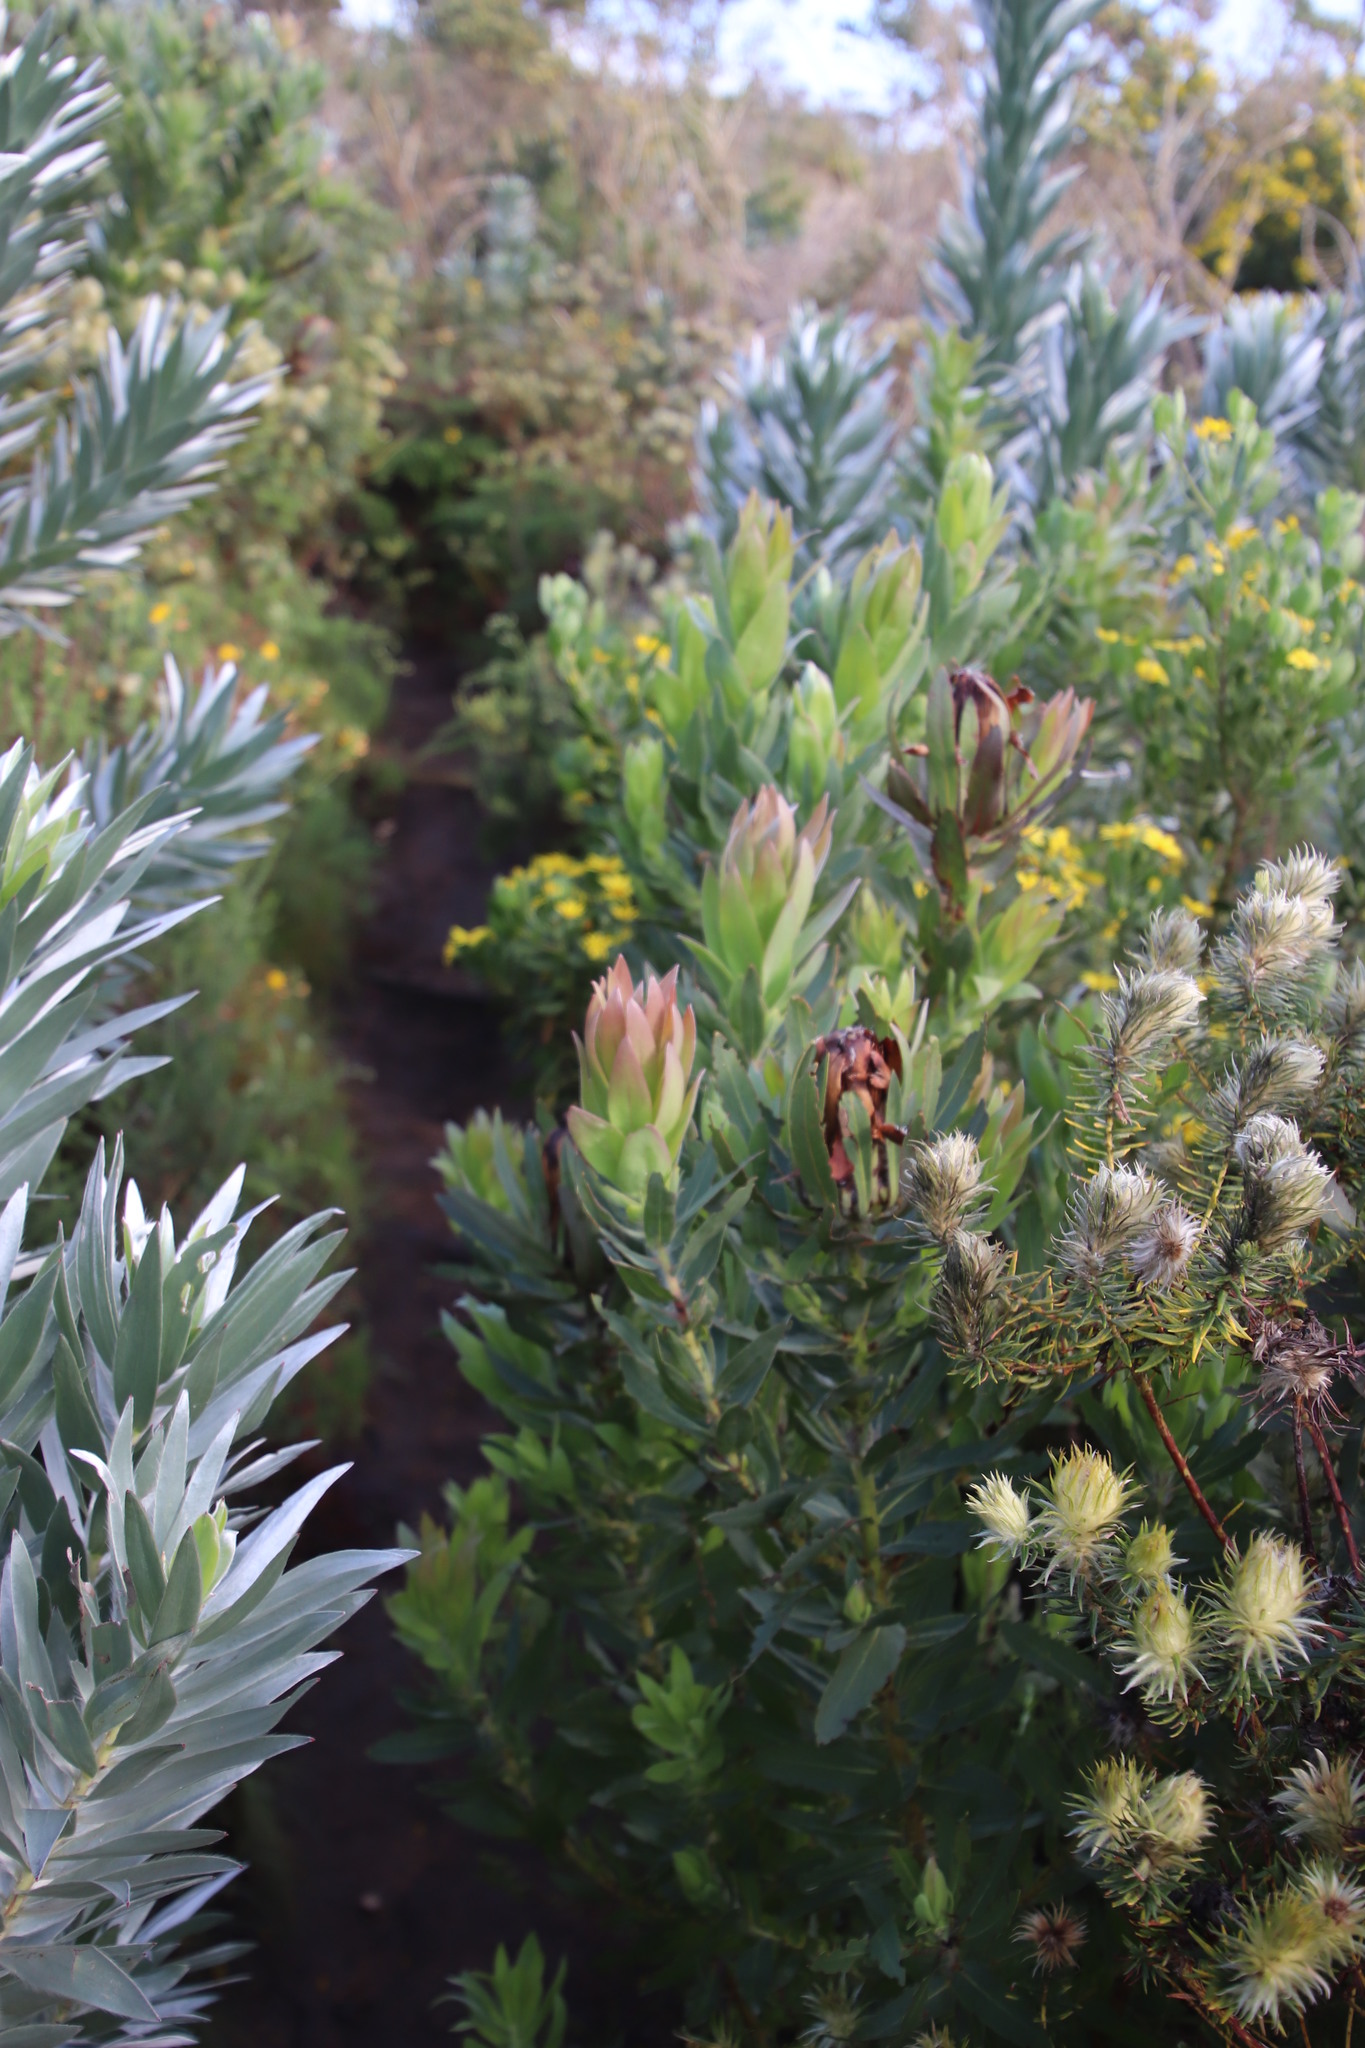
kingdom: Plantae
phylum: Tracheophyta
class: Magnoliopsida
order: Proteales
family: Proteaceae
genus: Protea
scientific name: Protea coronata
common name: Green sugarbush
